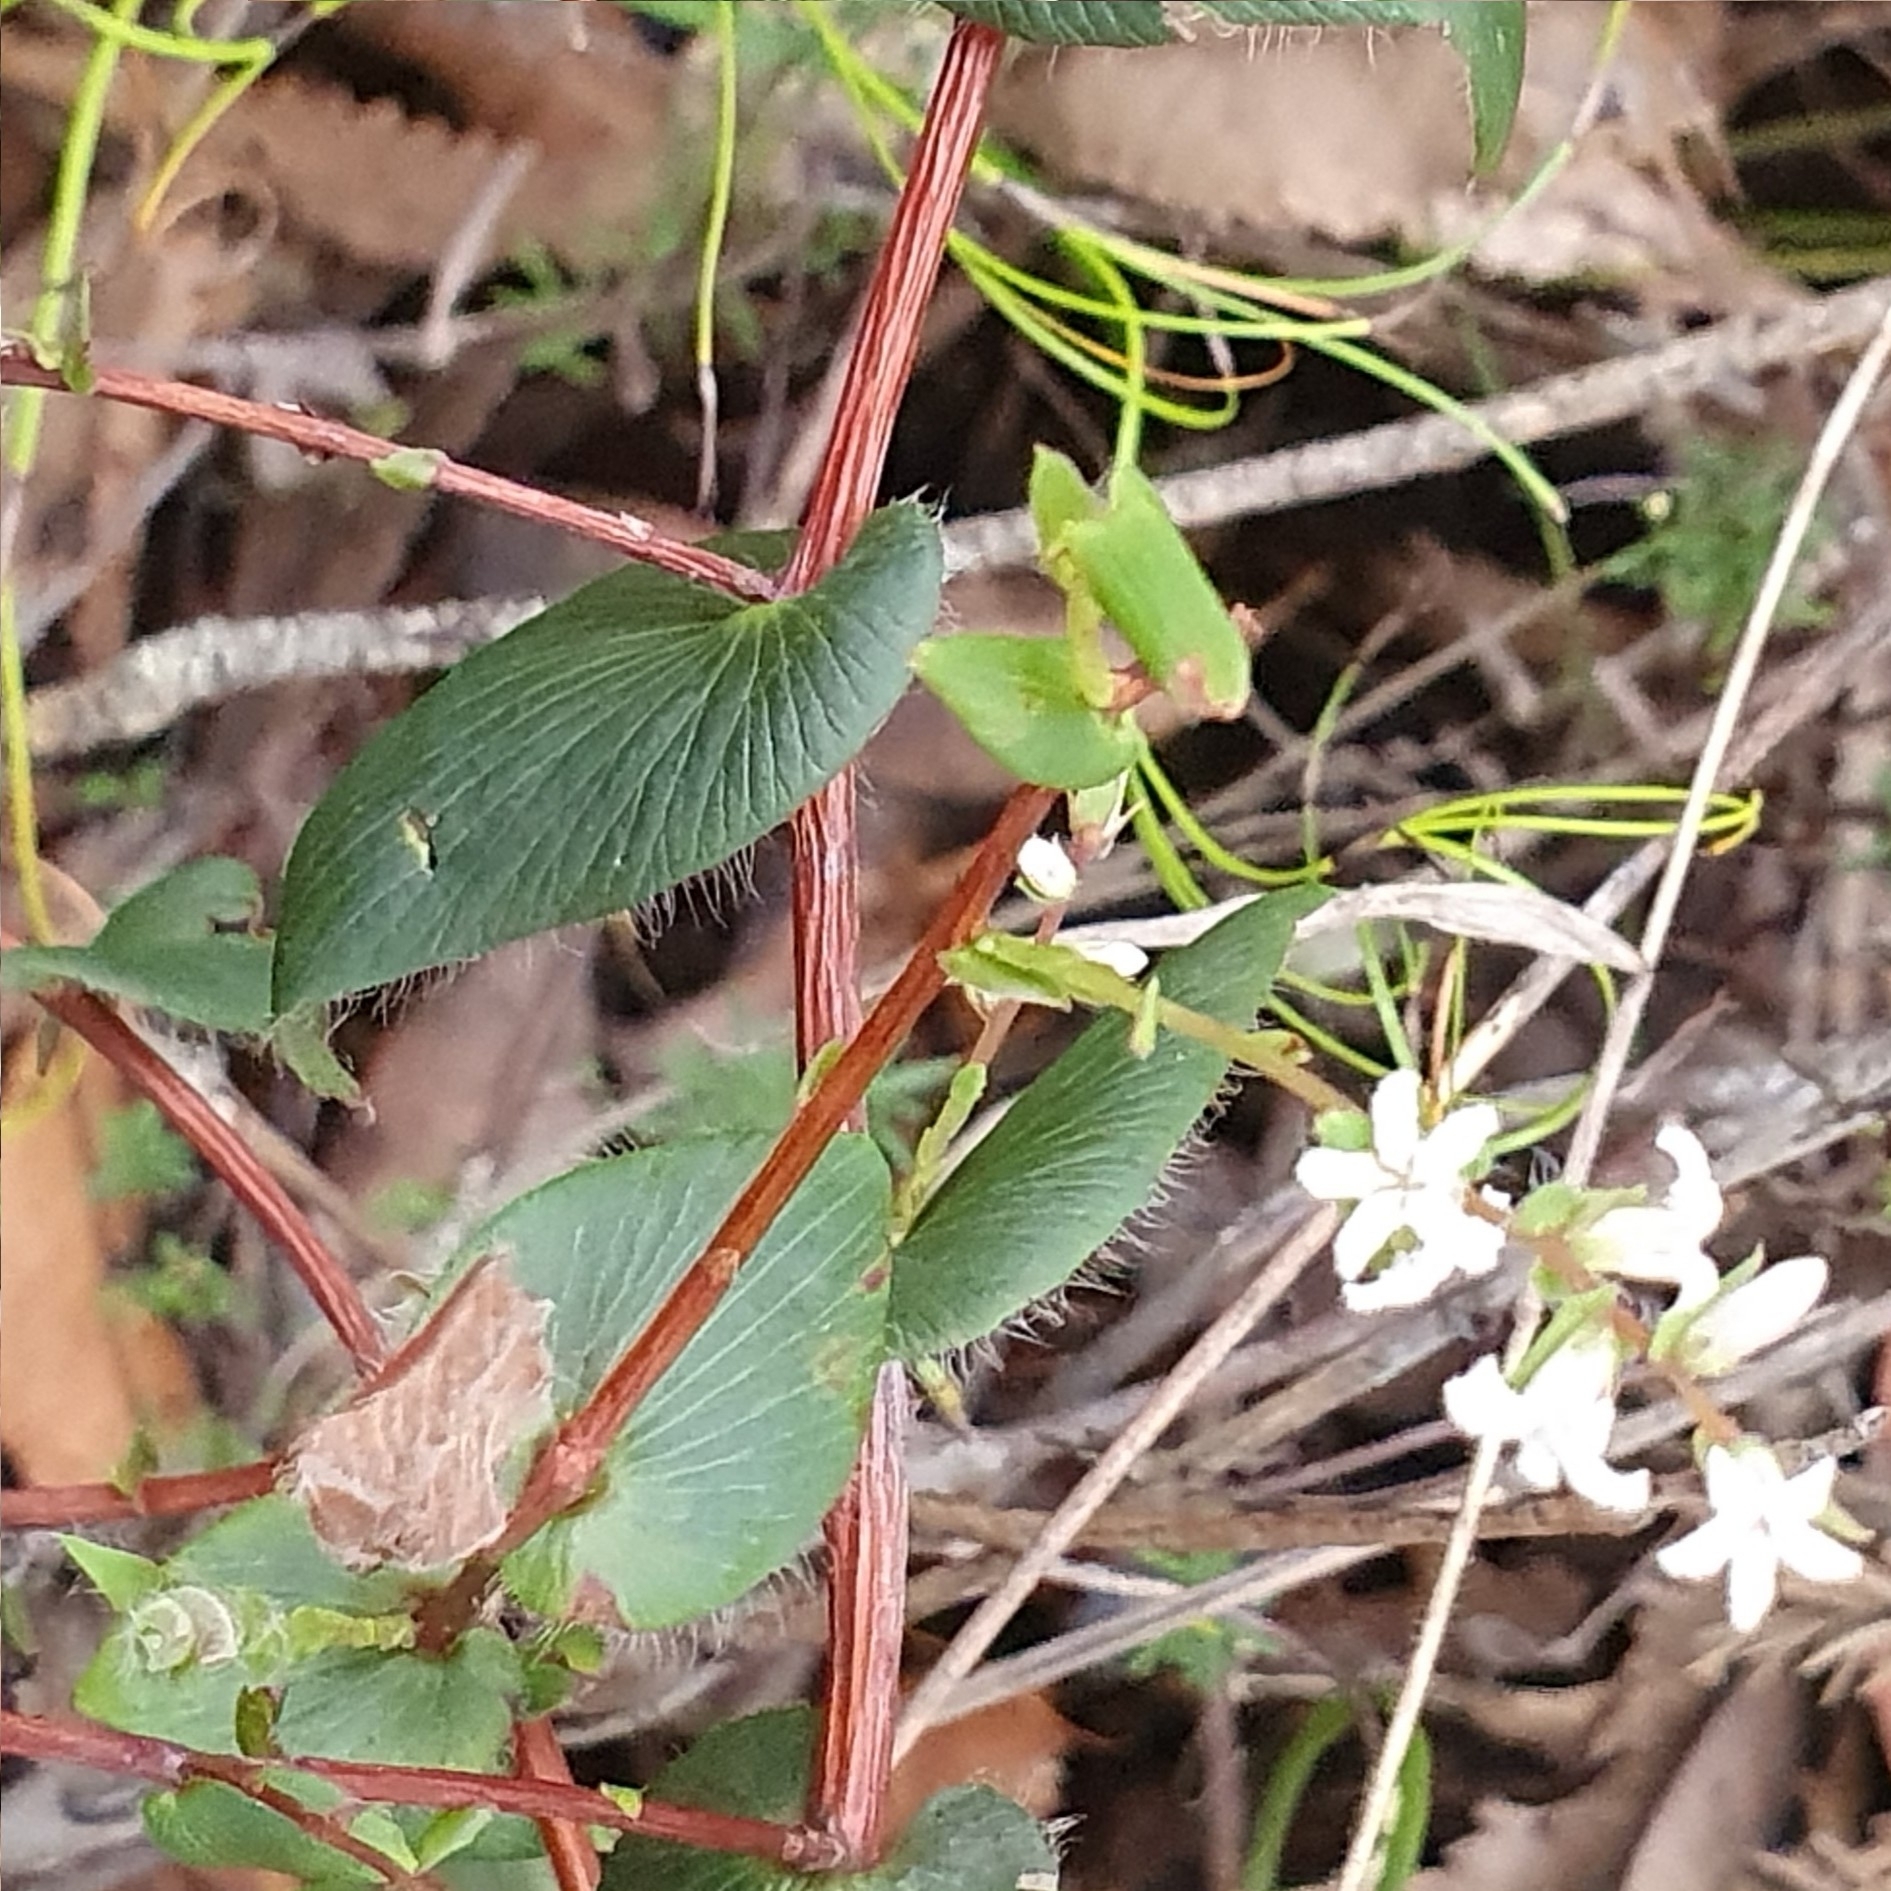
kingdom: Plantae
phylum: Tracheophyta
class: Magnoliopsida
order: Ericales
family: Ericaceae
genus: Leucopogon
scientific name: Leucopogon amplexicaulis
